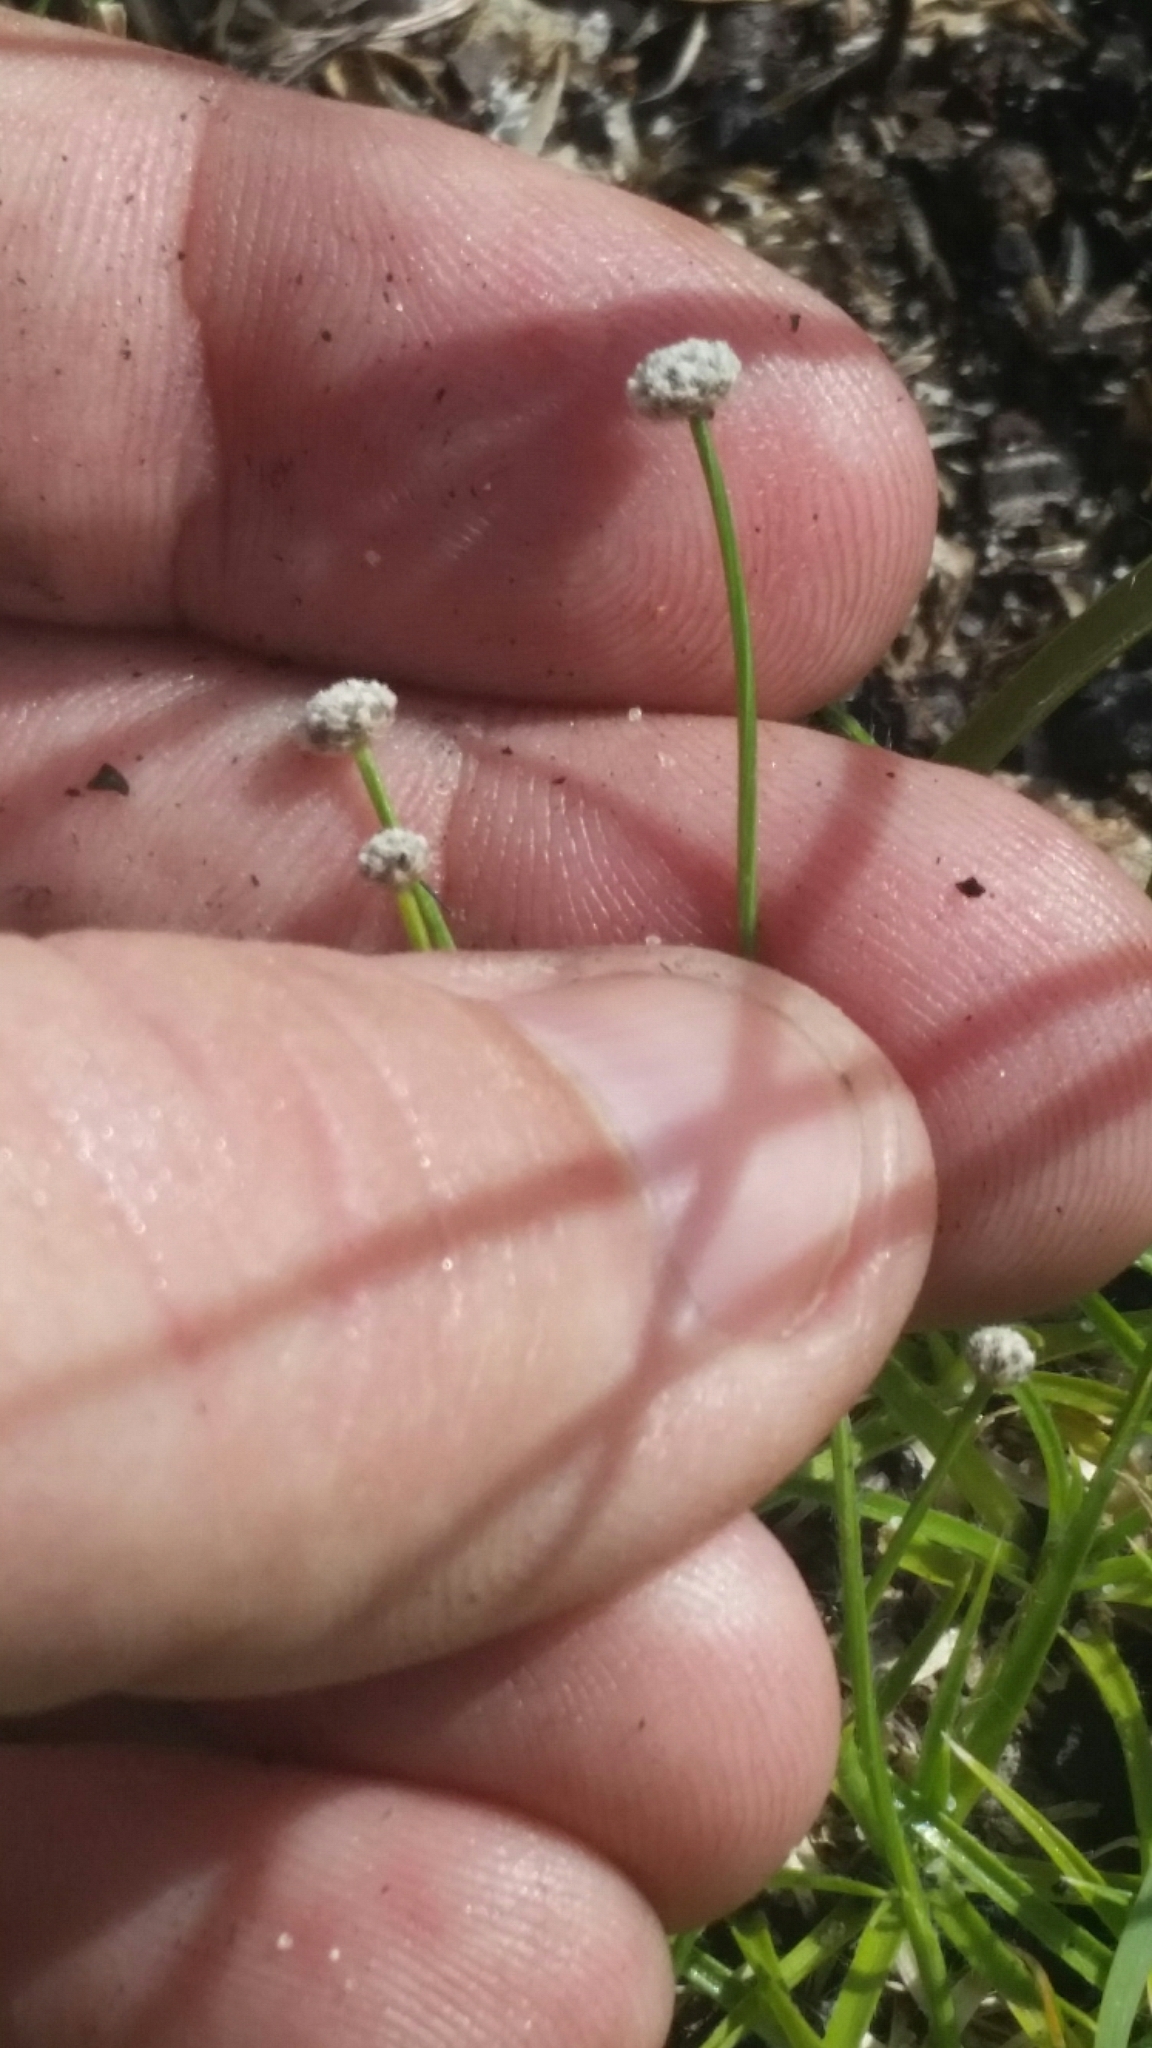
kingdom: Plantae
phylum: Tracheophyta
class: Liliopsida
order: Poales
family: Eriocaulaceae
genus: Paepalanthus
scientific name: Paepalanthus beyrichianus
